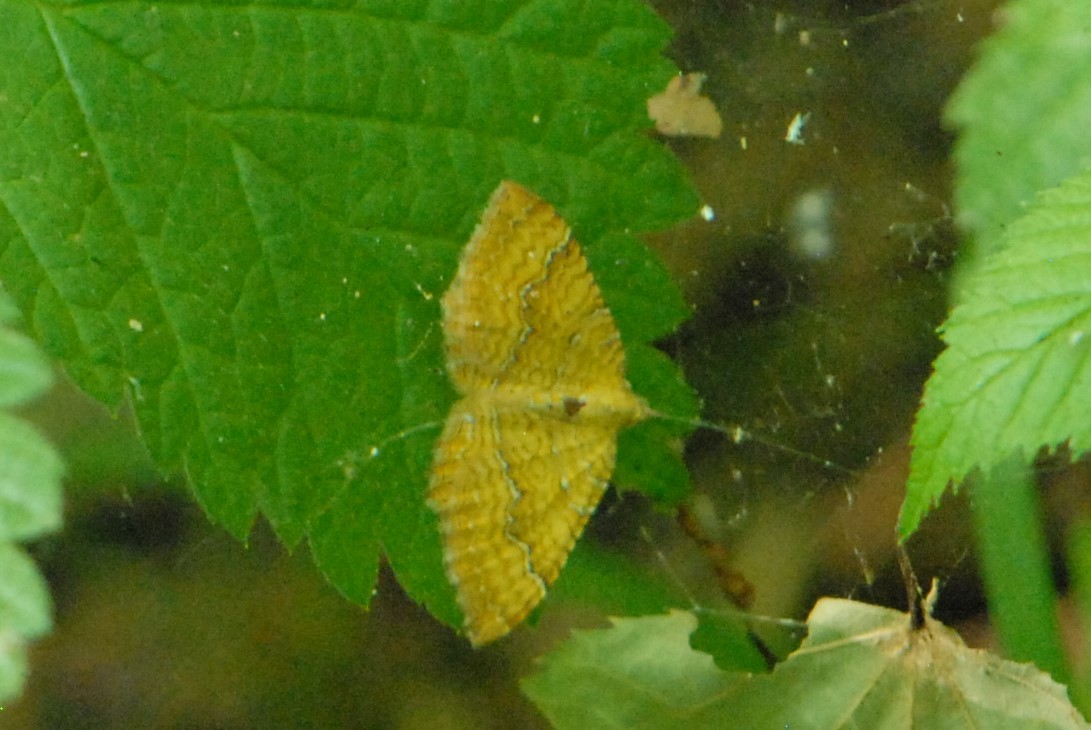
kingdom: Animalia
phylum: Arthropoda
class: Insecta
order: Lepidoptera
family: Geometridae
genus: Camptogramma
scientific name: Camptogramma bilineata
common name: Yellow shell
